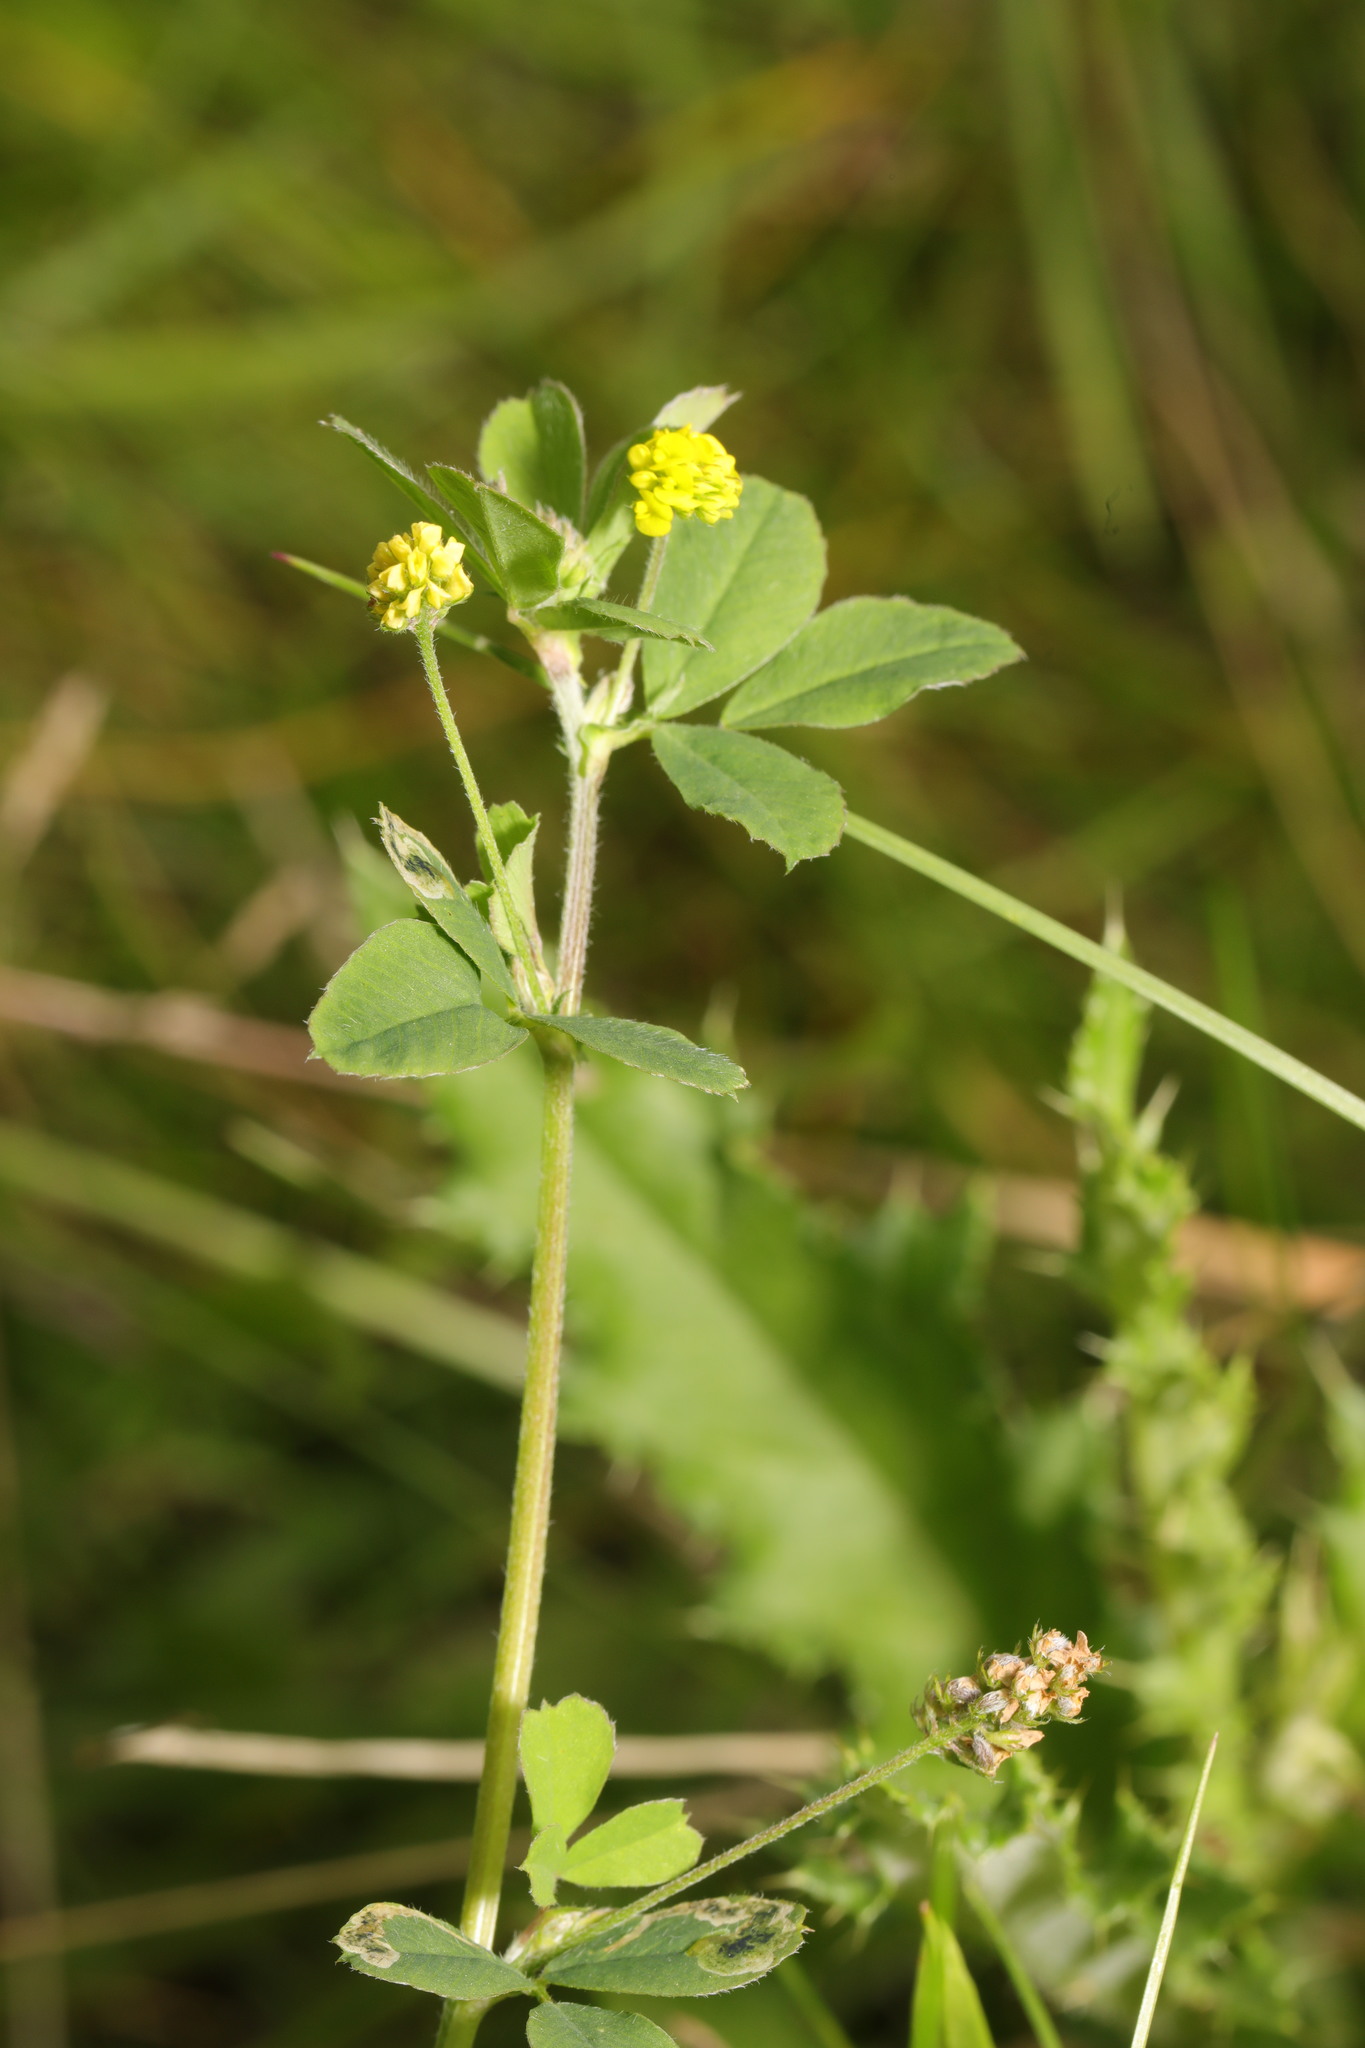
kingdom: Plantae
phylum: Tracheophyta
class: Magnoliopsida
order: Fabales
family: Fabaceae
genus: Medicago
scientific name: Medicago lupulina
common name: Black medick
